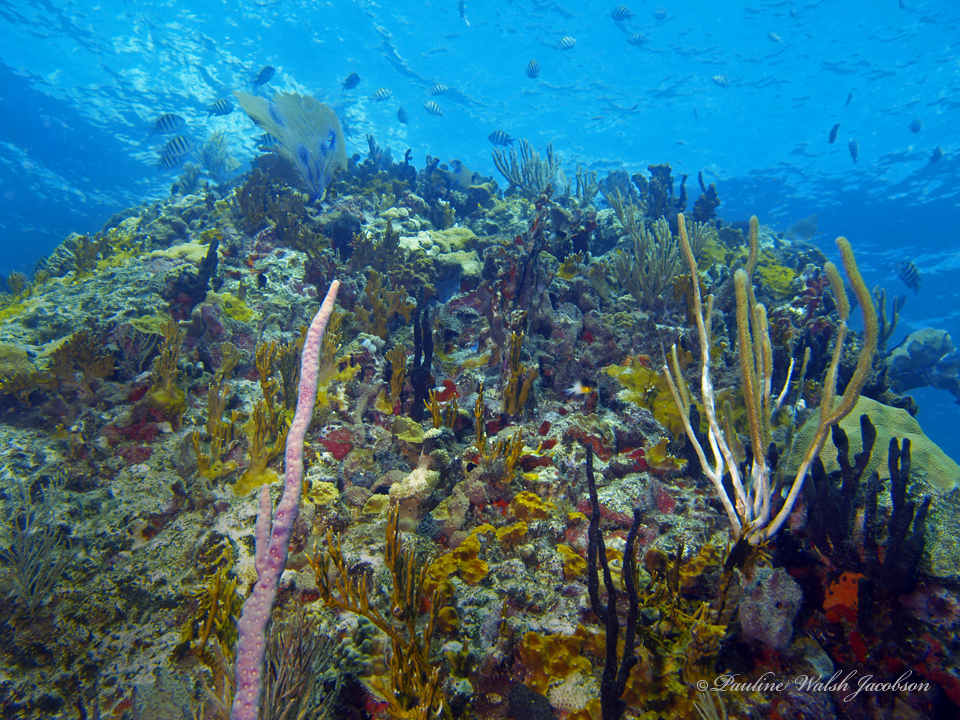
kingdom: Animalia
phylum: Chordata
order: Perciformes
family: Pomacentridae
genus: Abudefduf
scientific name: Abudefduf saxatilis
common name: Sergeant major
